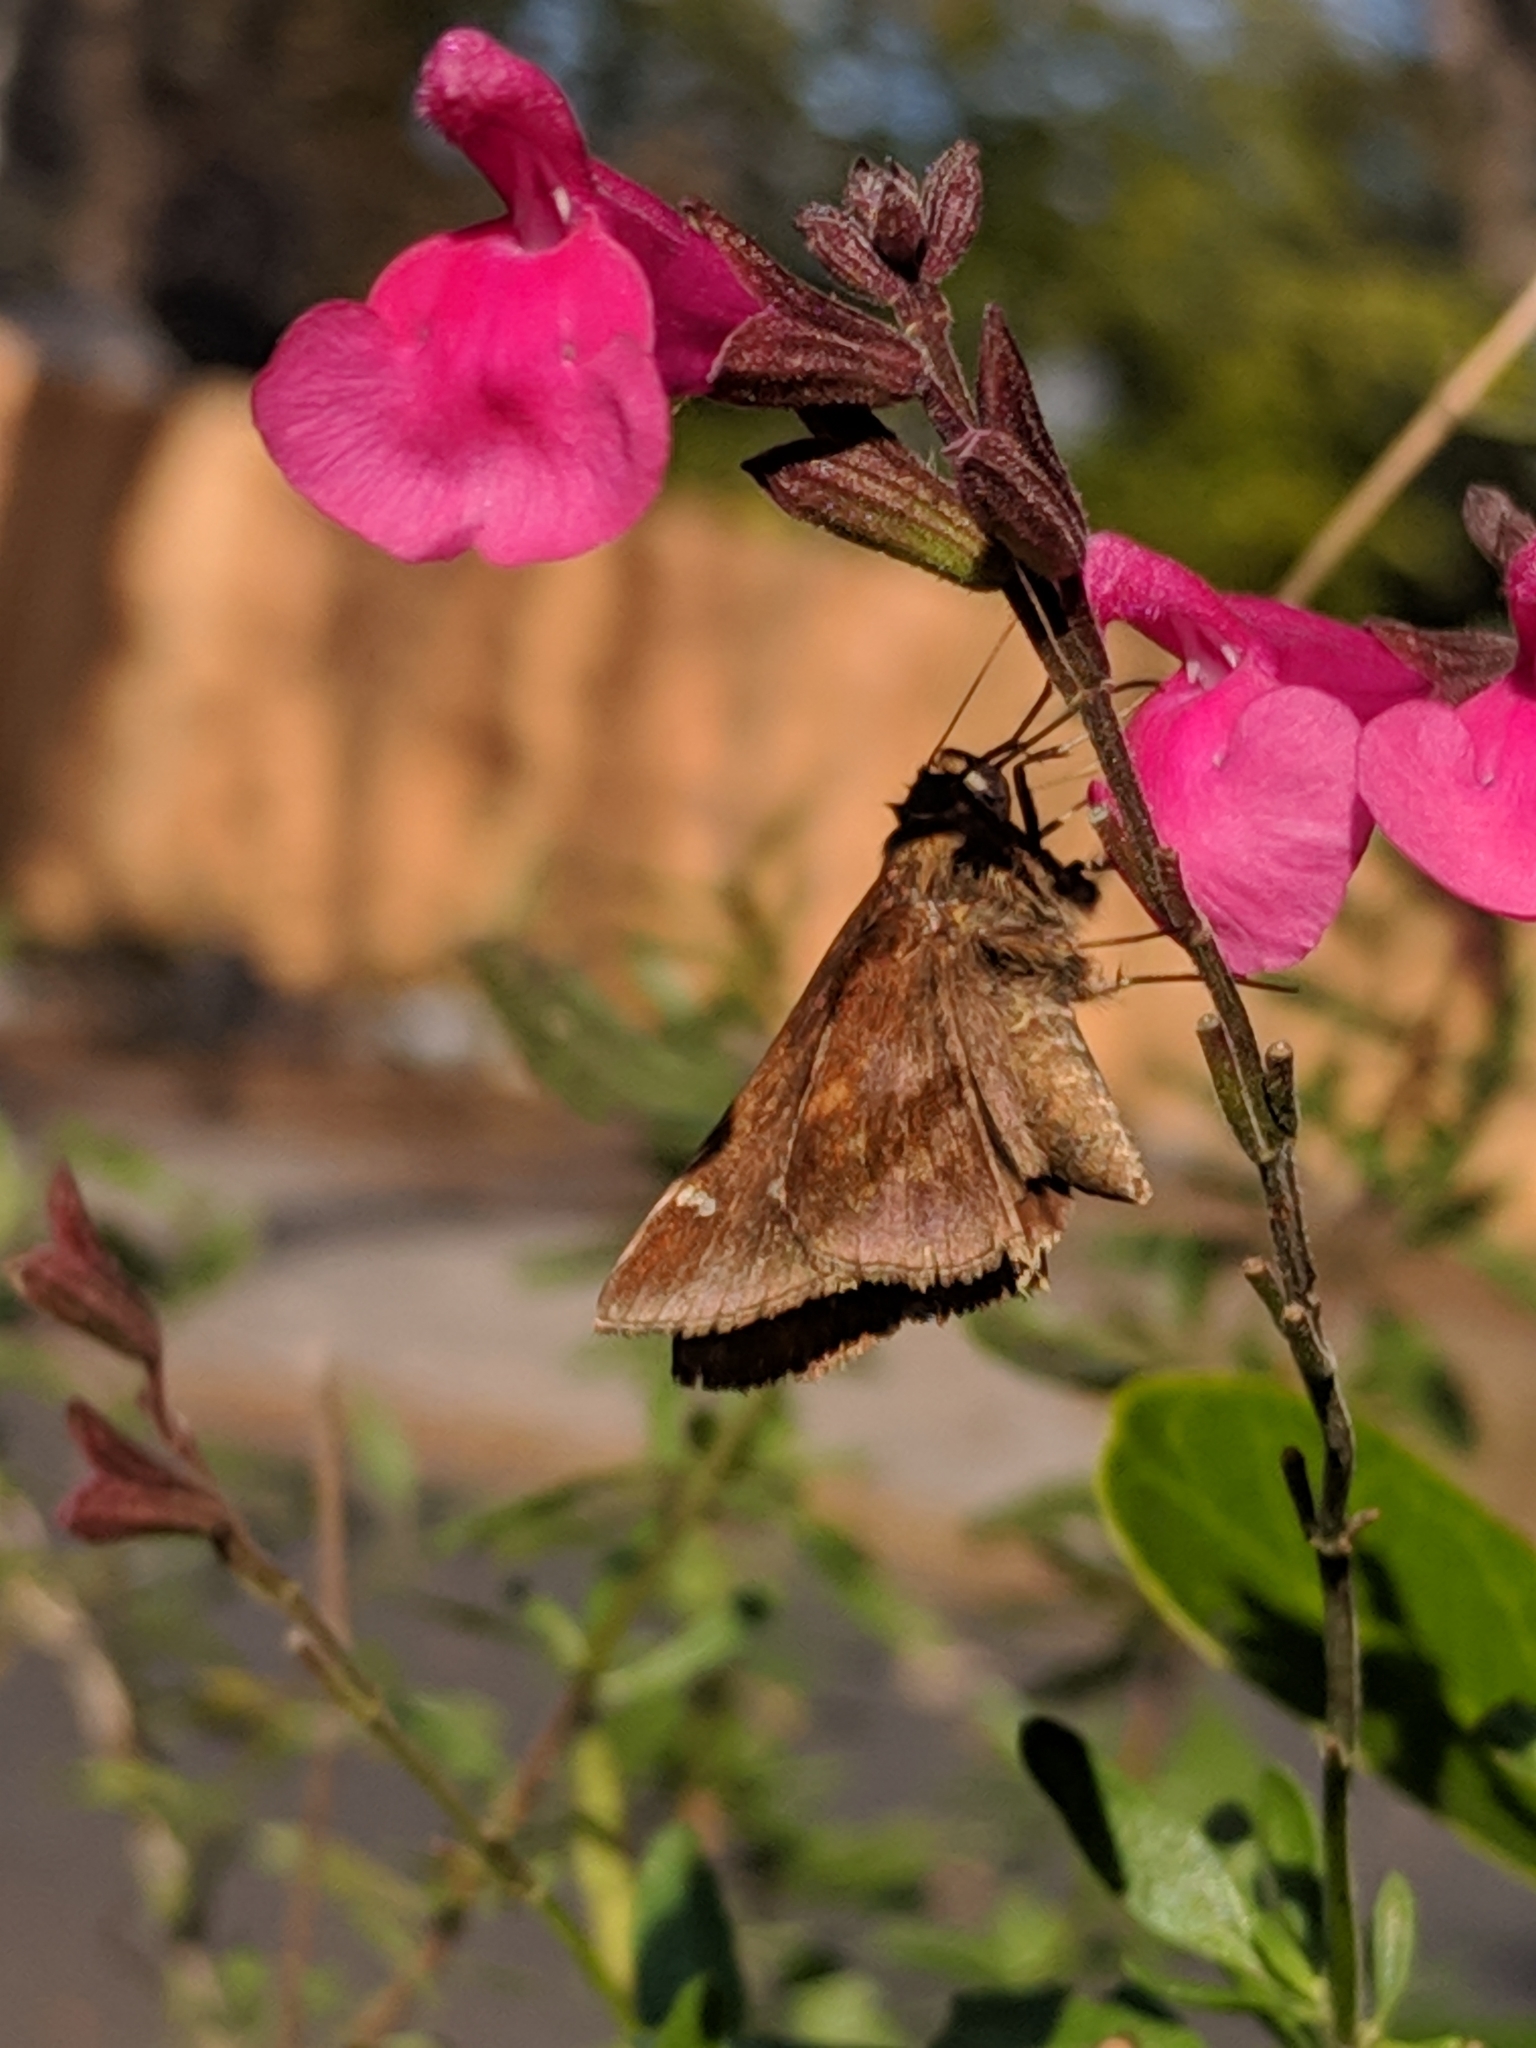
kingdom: Animalia
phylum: Arthropoda
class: Insecta
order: Lepidoptera
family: Hesperiidae
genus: Lerema
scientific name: Lerema accius
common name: Clouded skipper
